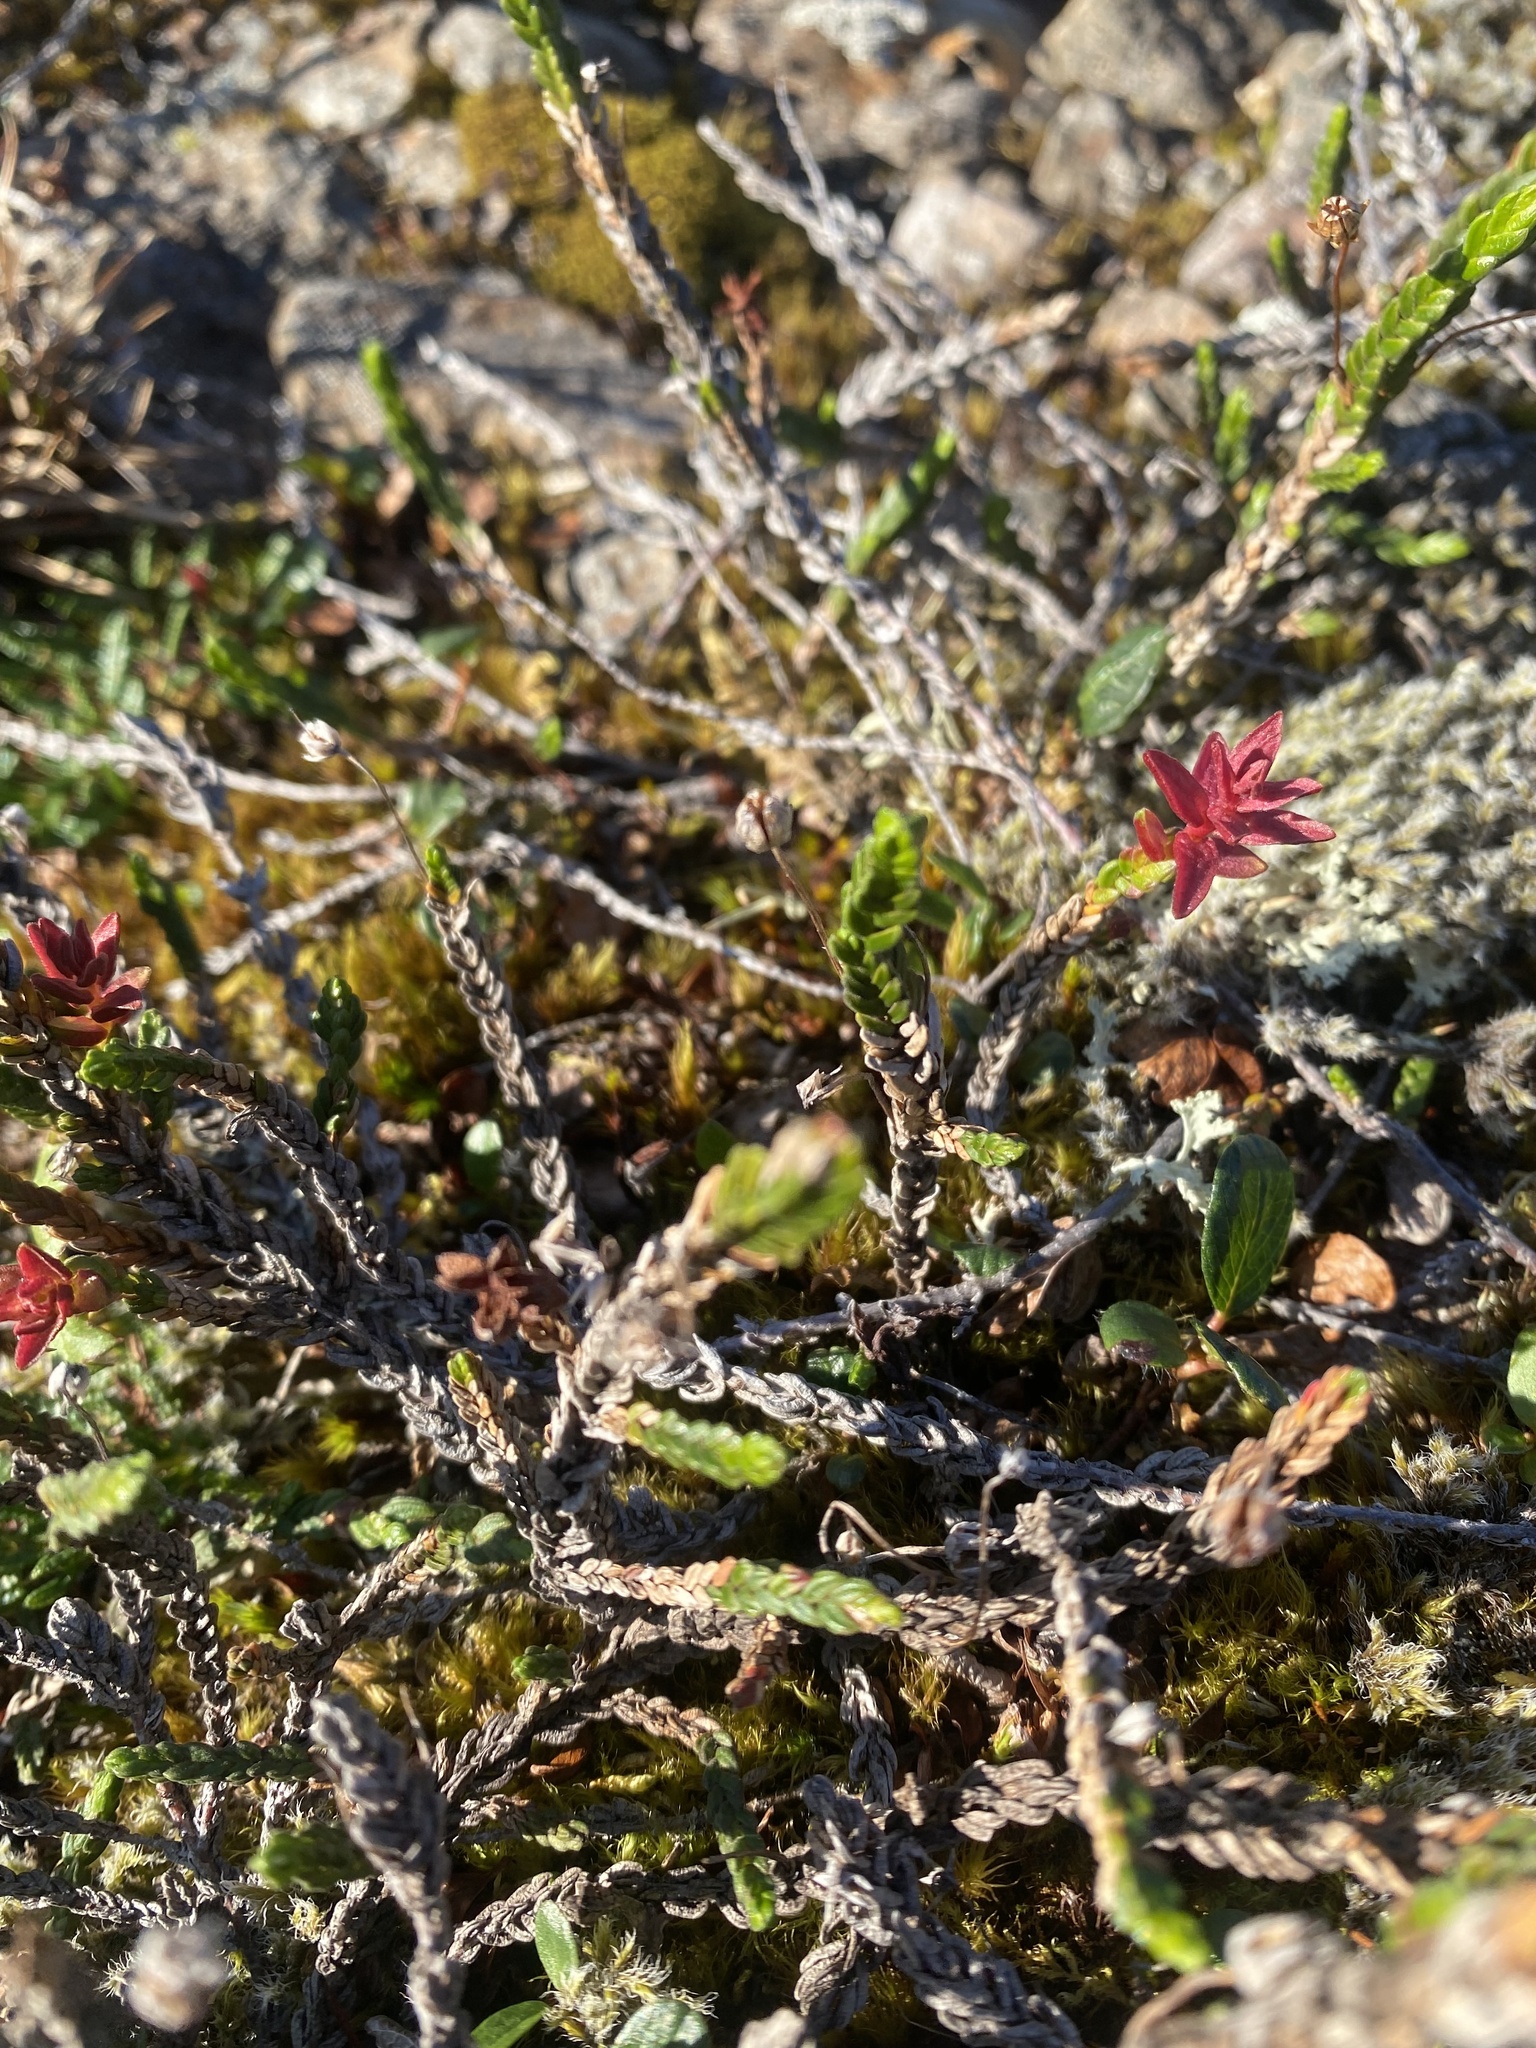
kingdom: Plantae
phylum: Tracheophyta
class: Magnoliopsida
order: Ericales
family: Ericaceae
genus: Cassiope
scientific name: Cassiope tetragona
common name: Arctic bell heather
